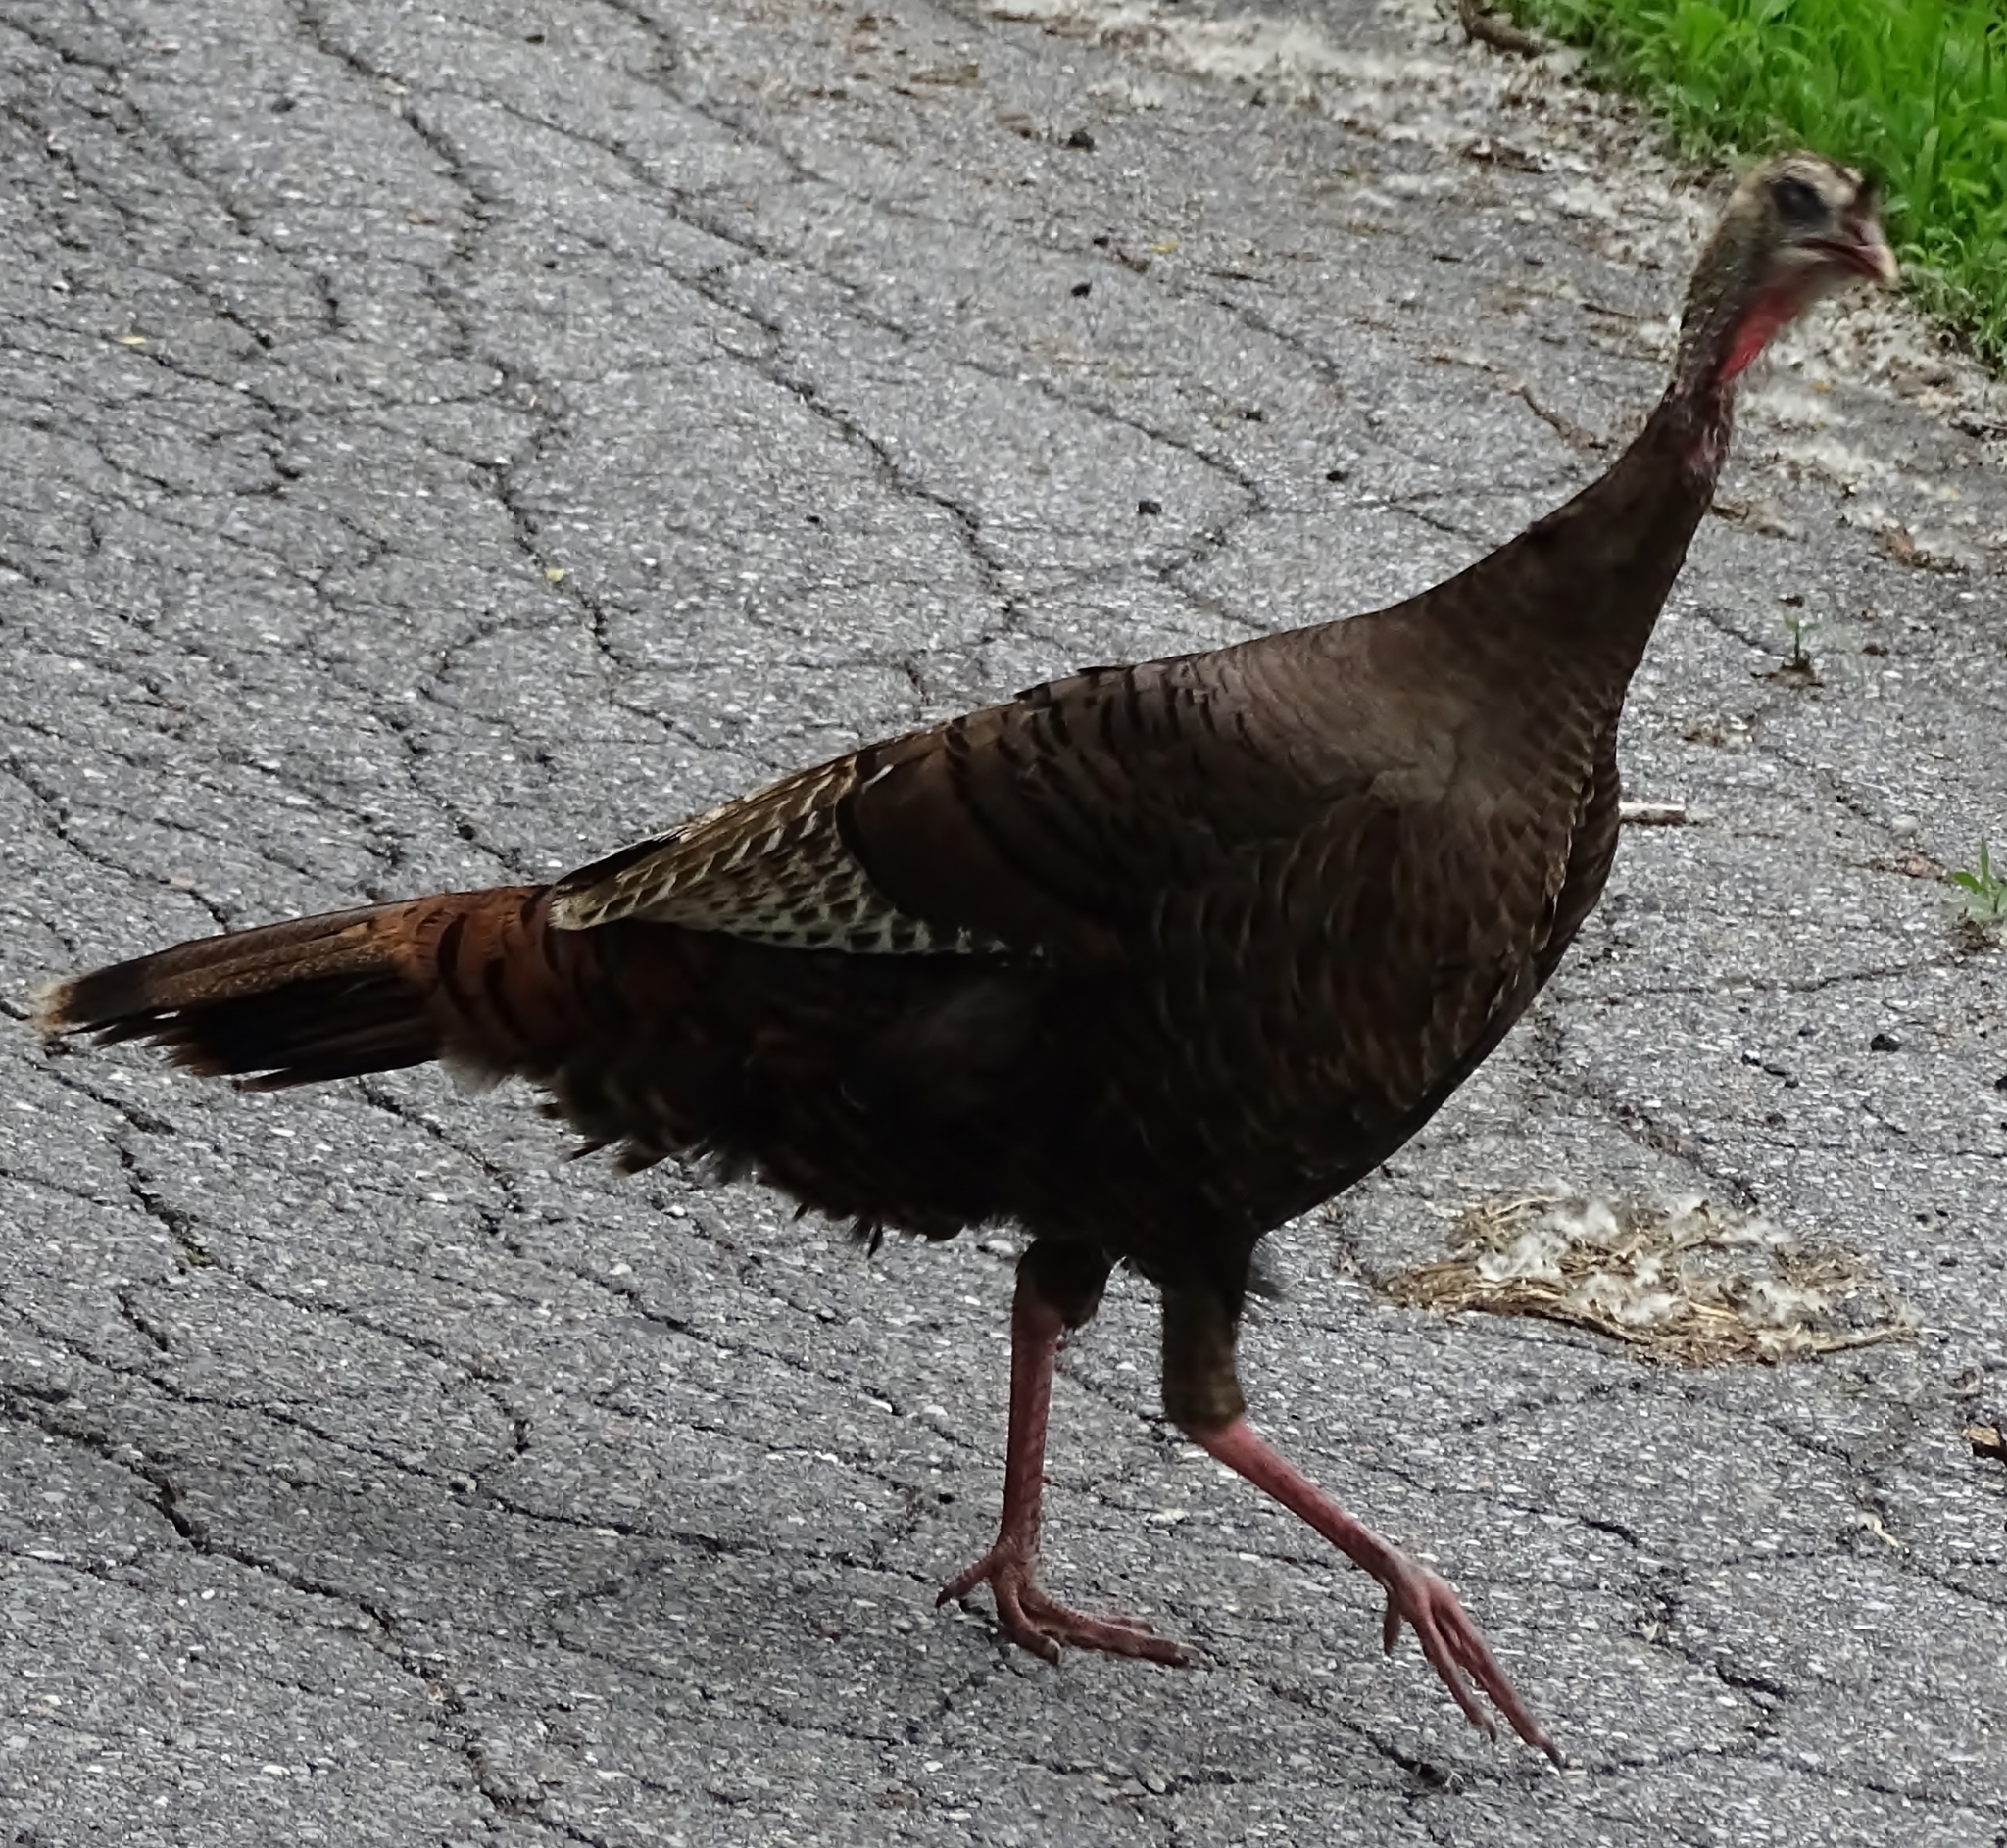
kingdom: Animalia
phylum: Chordata
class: Aves
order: Galliformes
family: Phasianidae
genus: Meleagris
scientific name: Meleagris gallopavo
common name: Wild turkey
